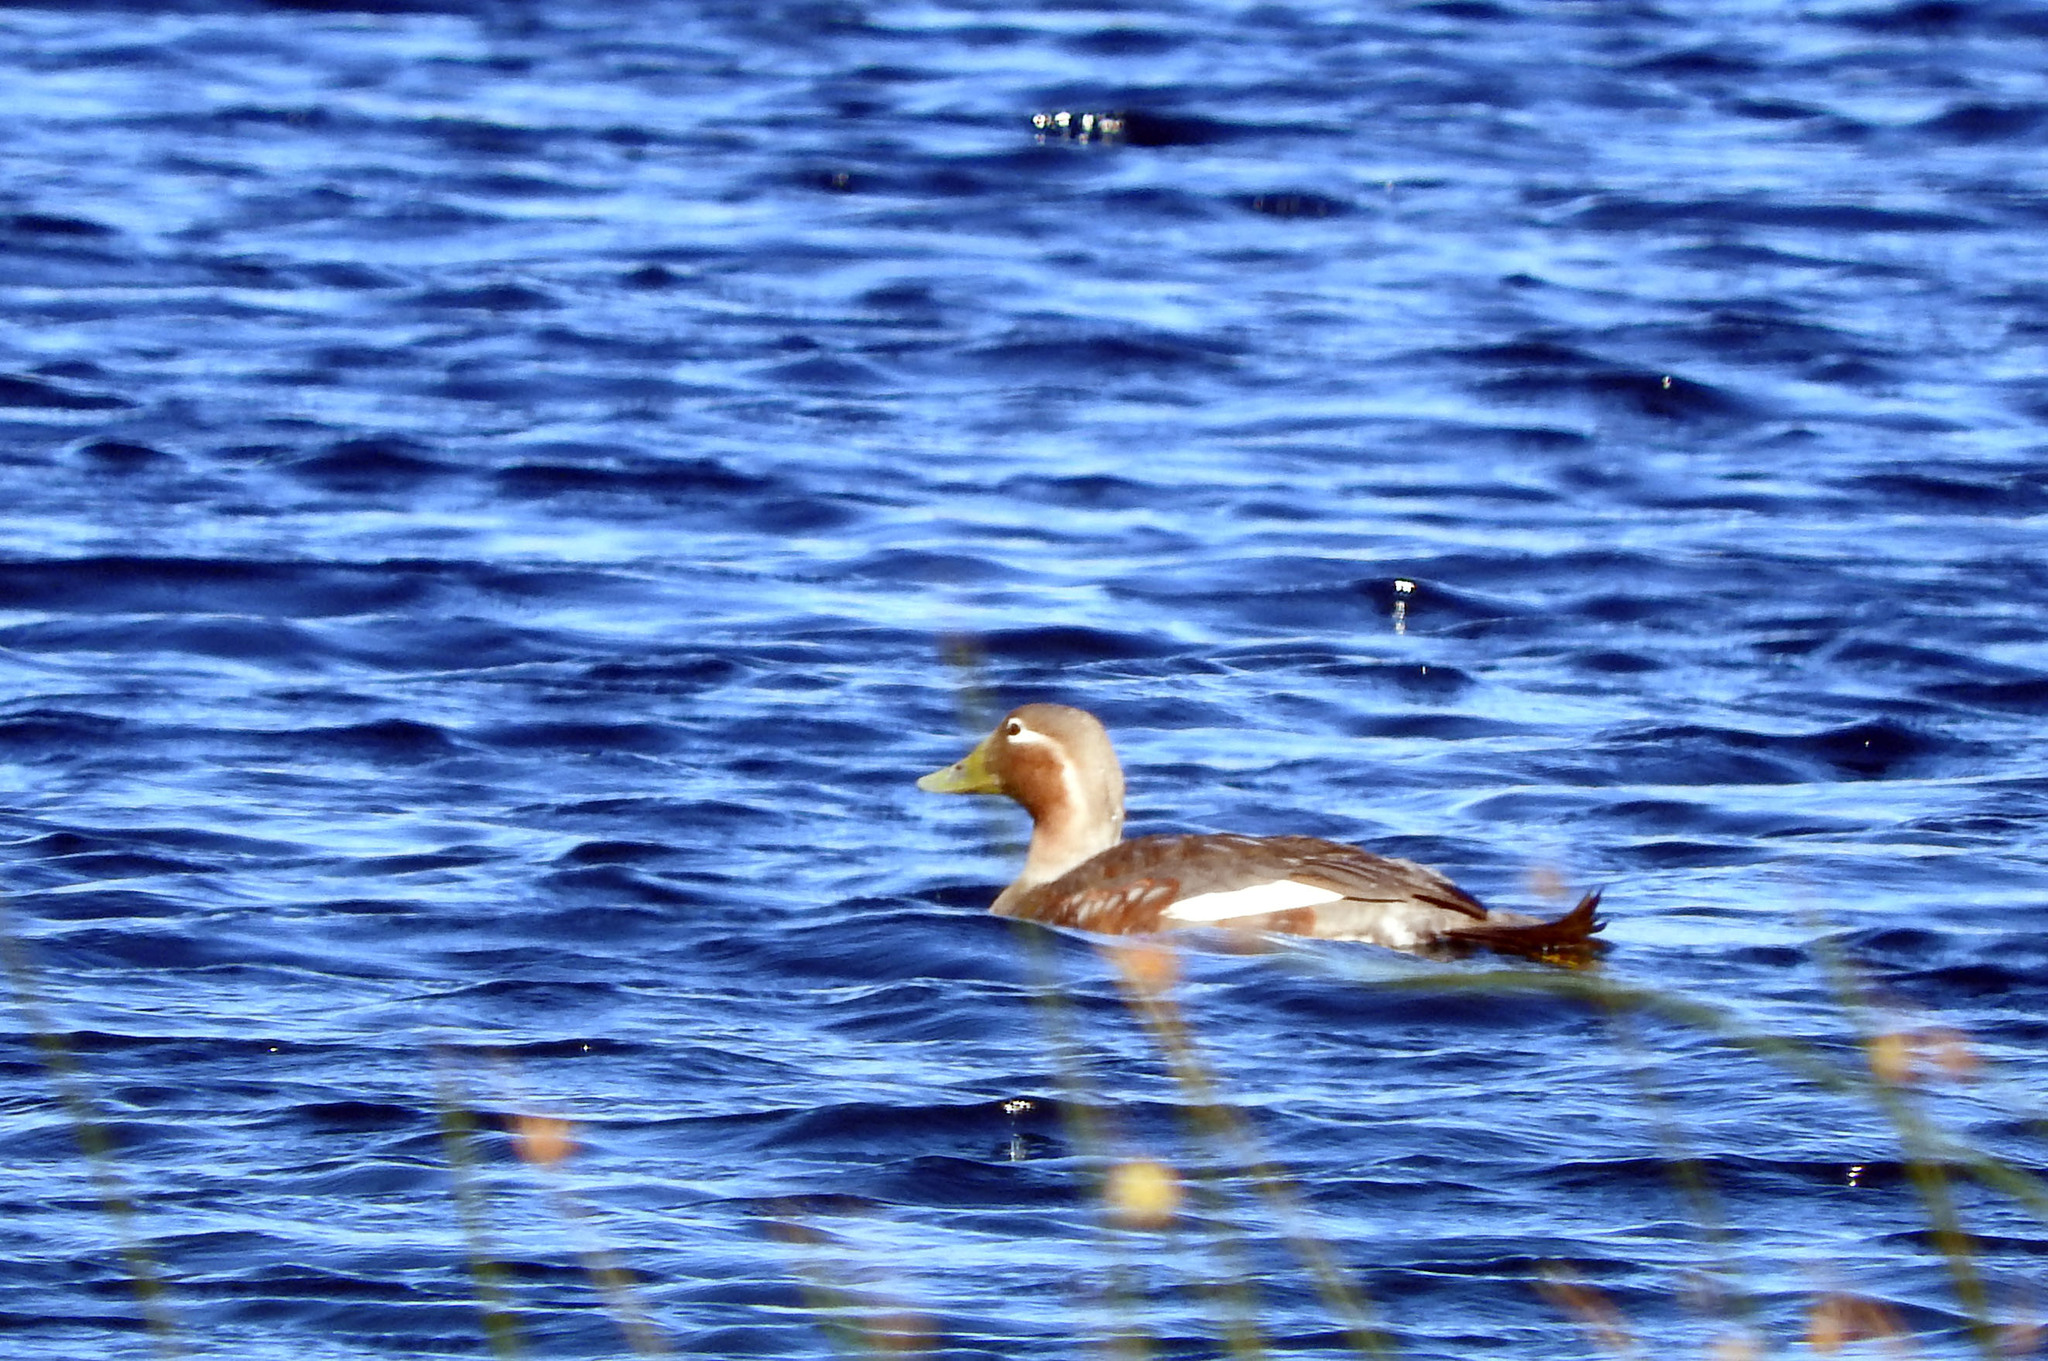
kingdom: Animalia
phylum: Chordata
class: Aves
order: Anseriformes
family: Anatidae
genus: Tachyeres
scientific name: Tachyeres patachonicus
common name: Flying steamer duck
